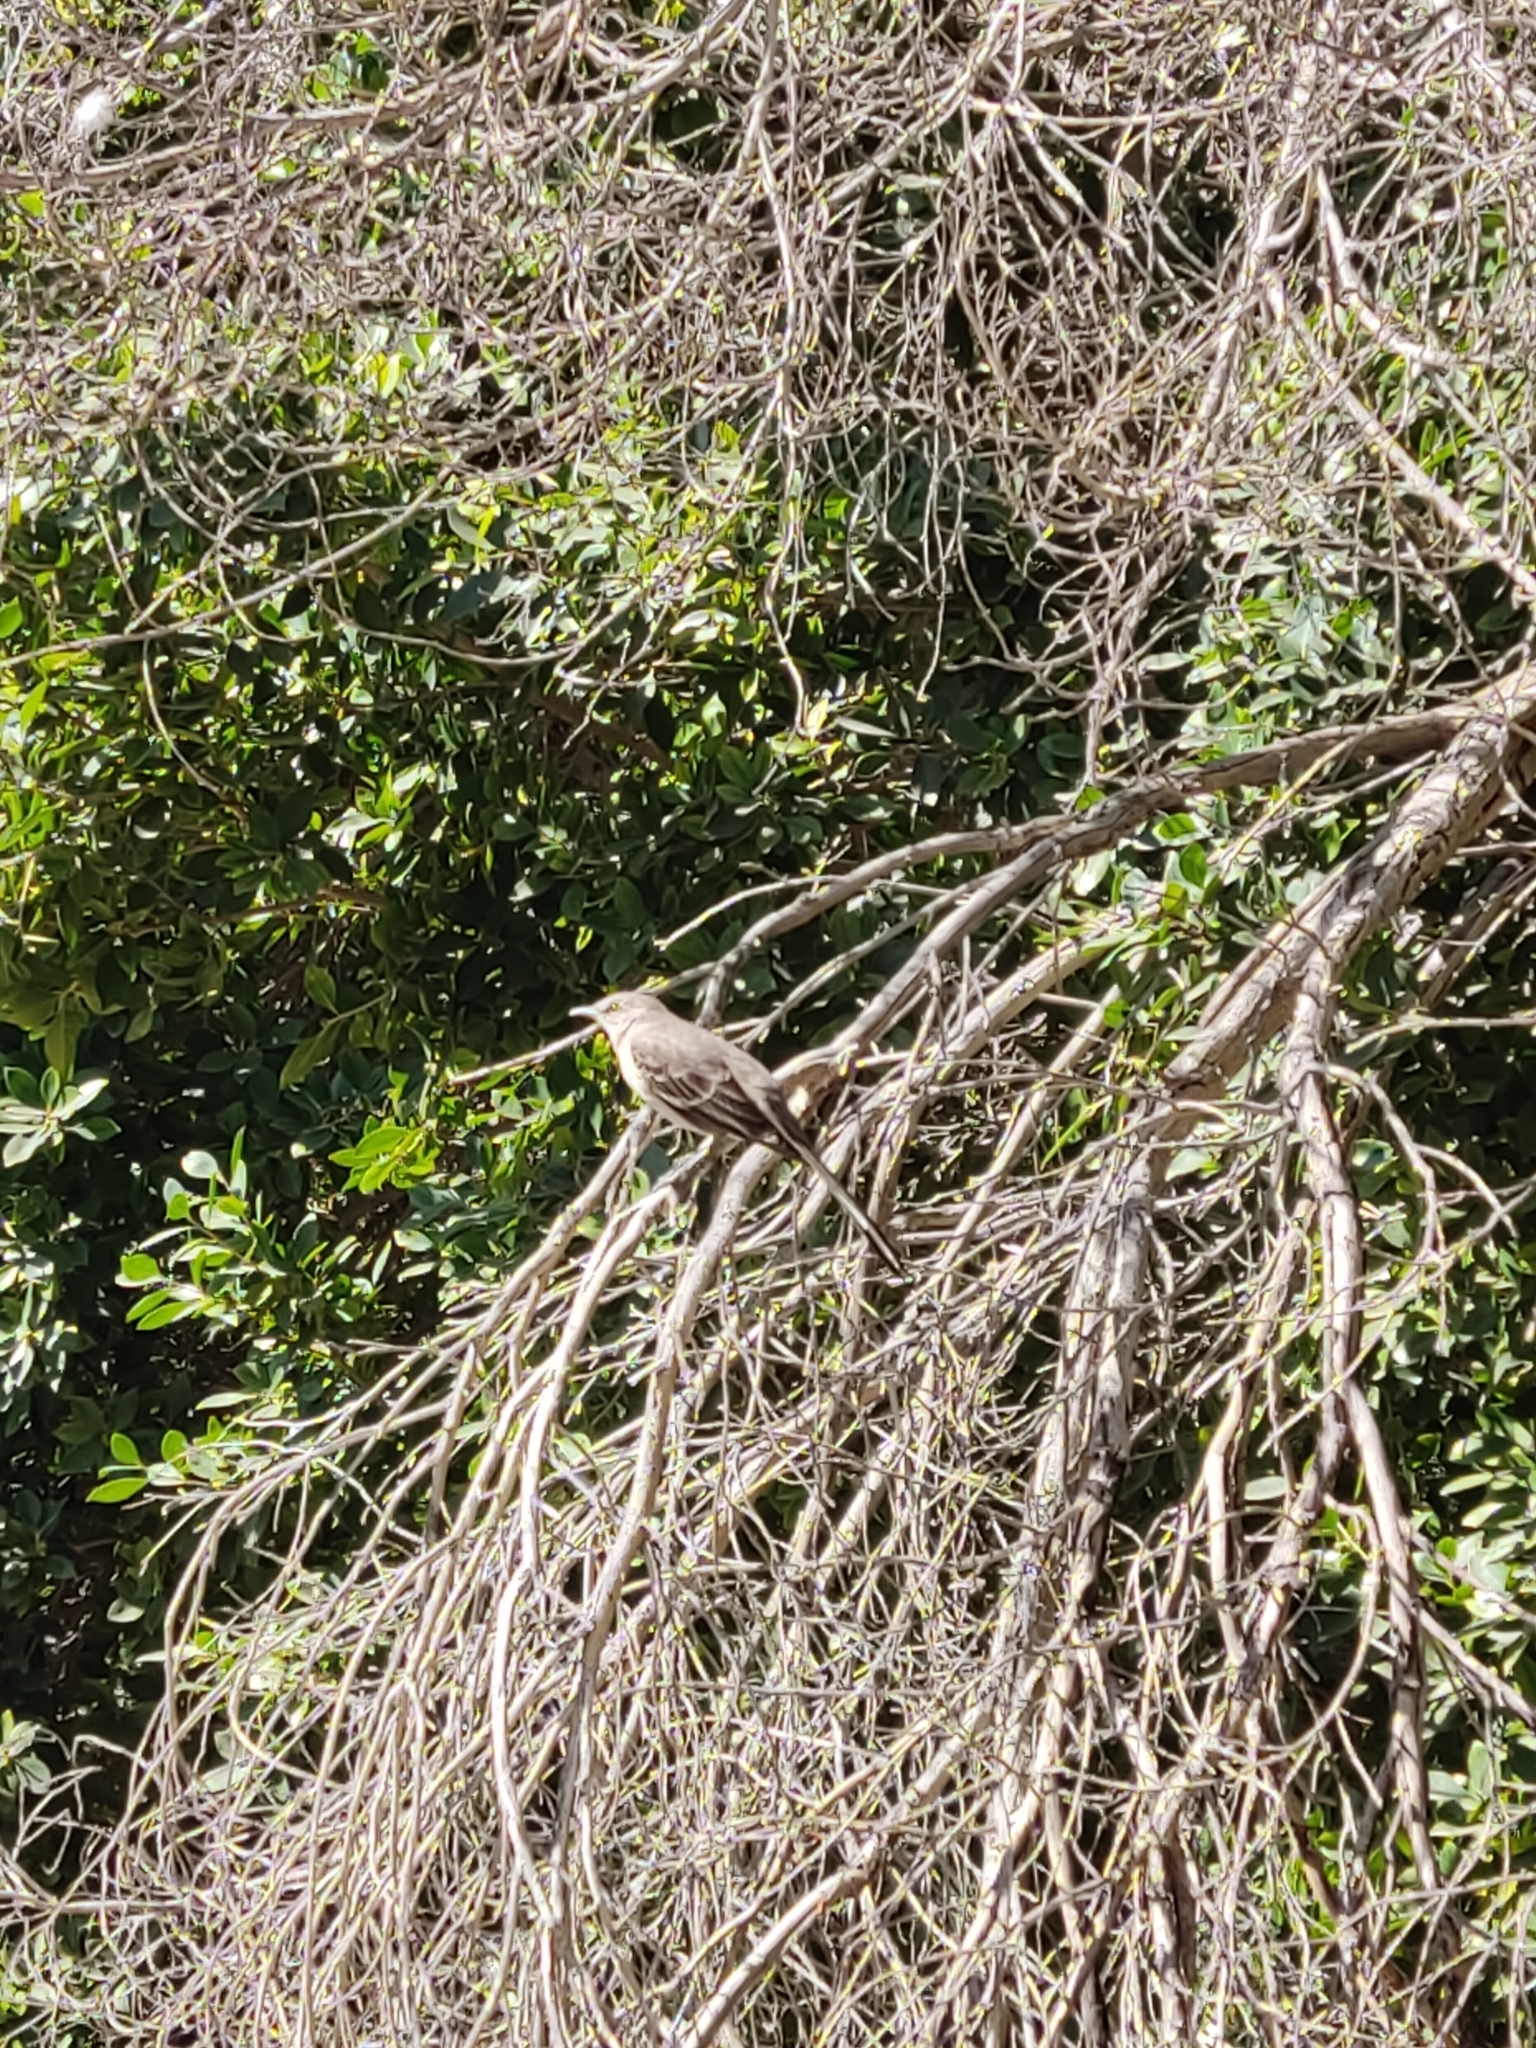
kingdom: Animalia
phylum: Chordata
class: Aves
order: Passeriformes
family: Mimidae
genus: Mimus
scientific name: Mimus polyglottos
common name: Northern mockingbird
